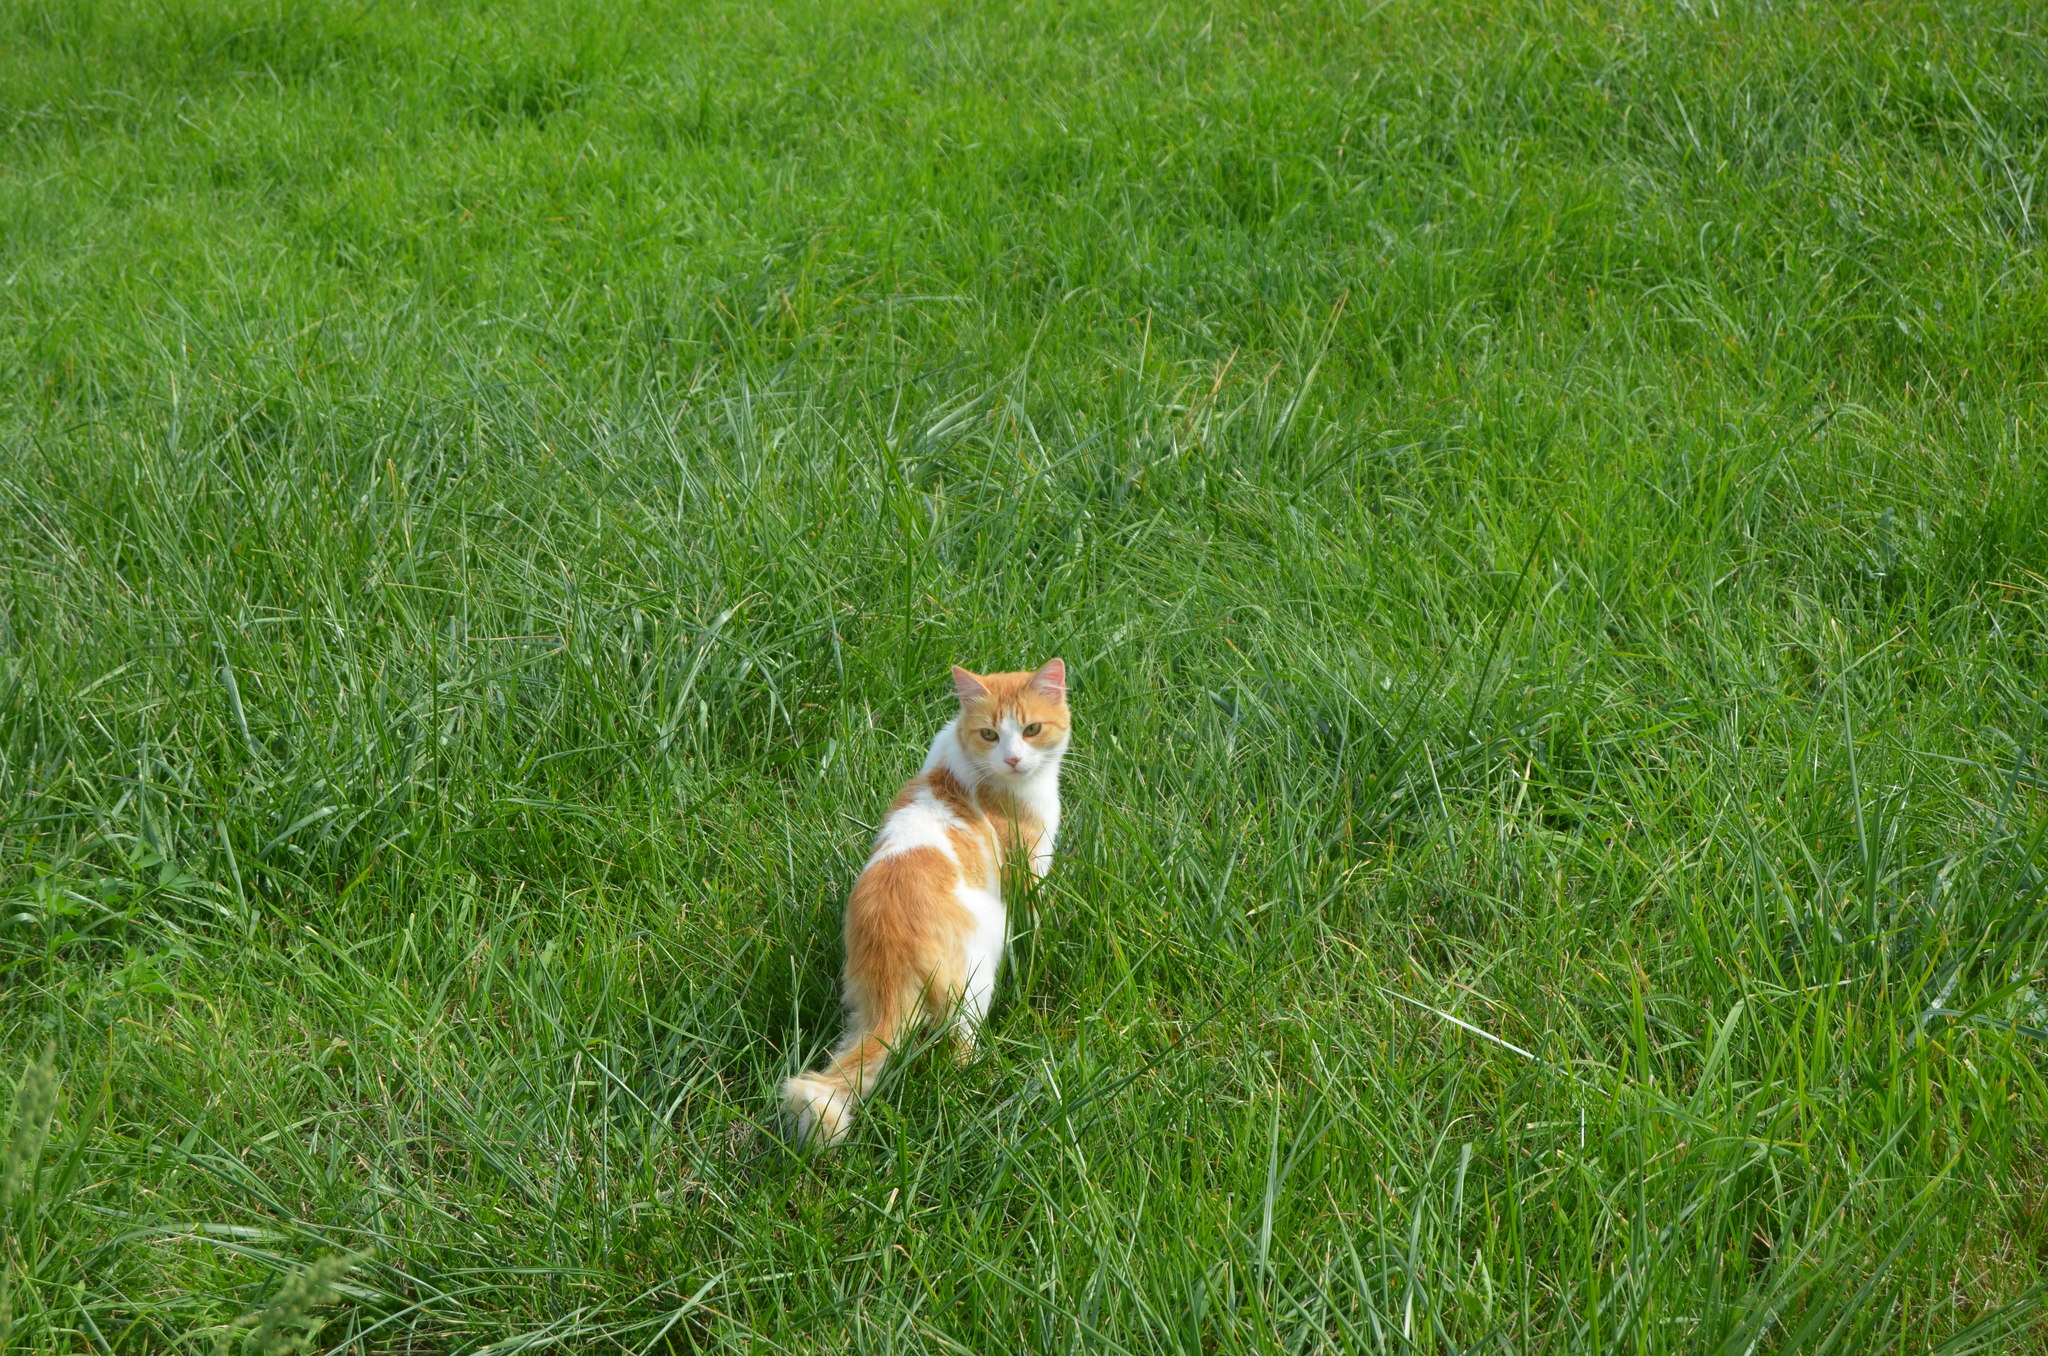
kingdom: Animalia
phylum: Chordata
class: Mammalia
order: Carnivora
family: Felidae
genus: Felis
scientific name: Felis catus
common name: Domestic cat
